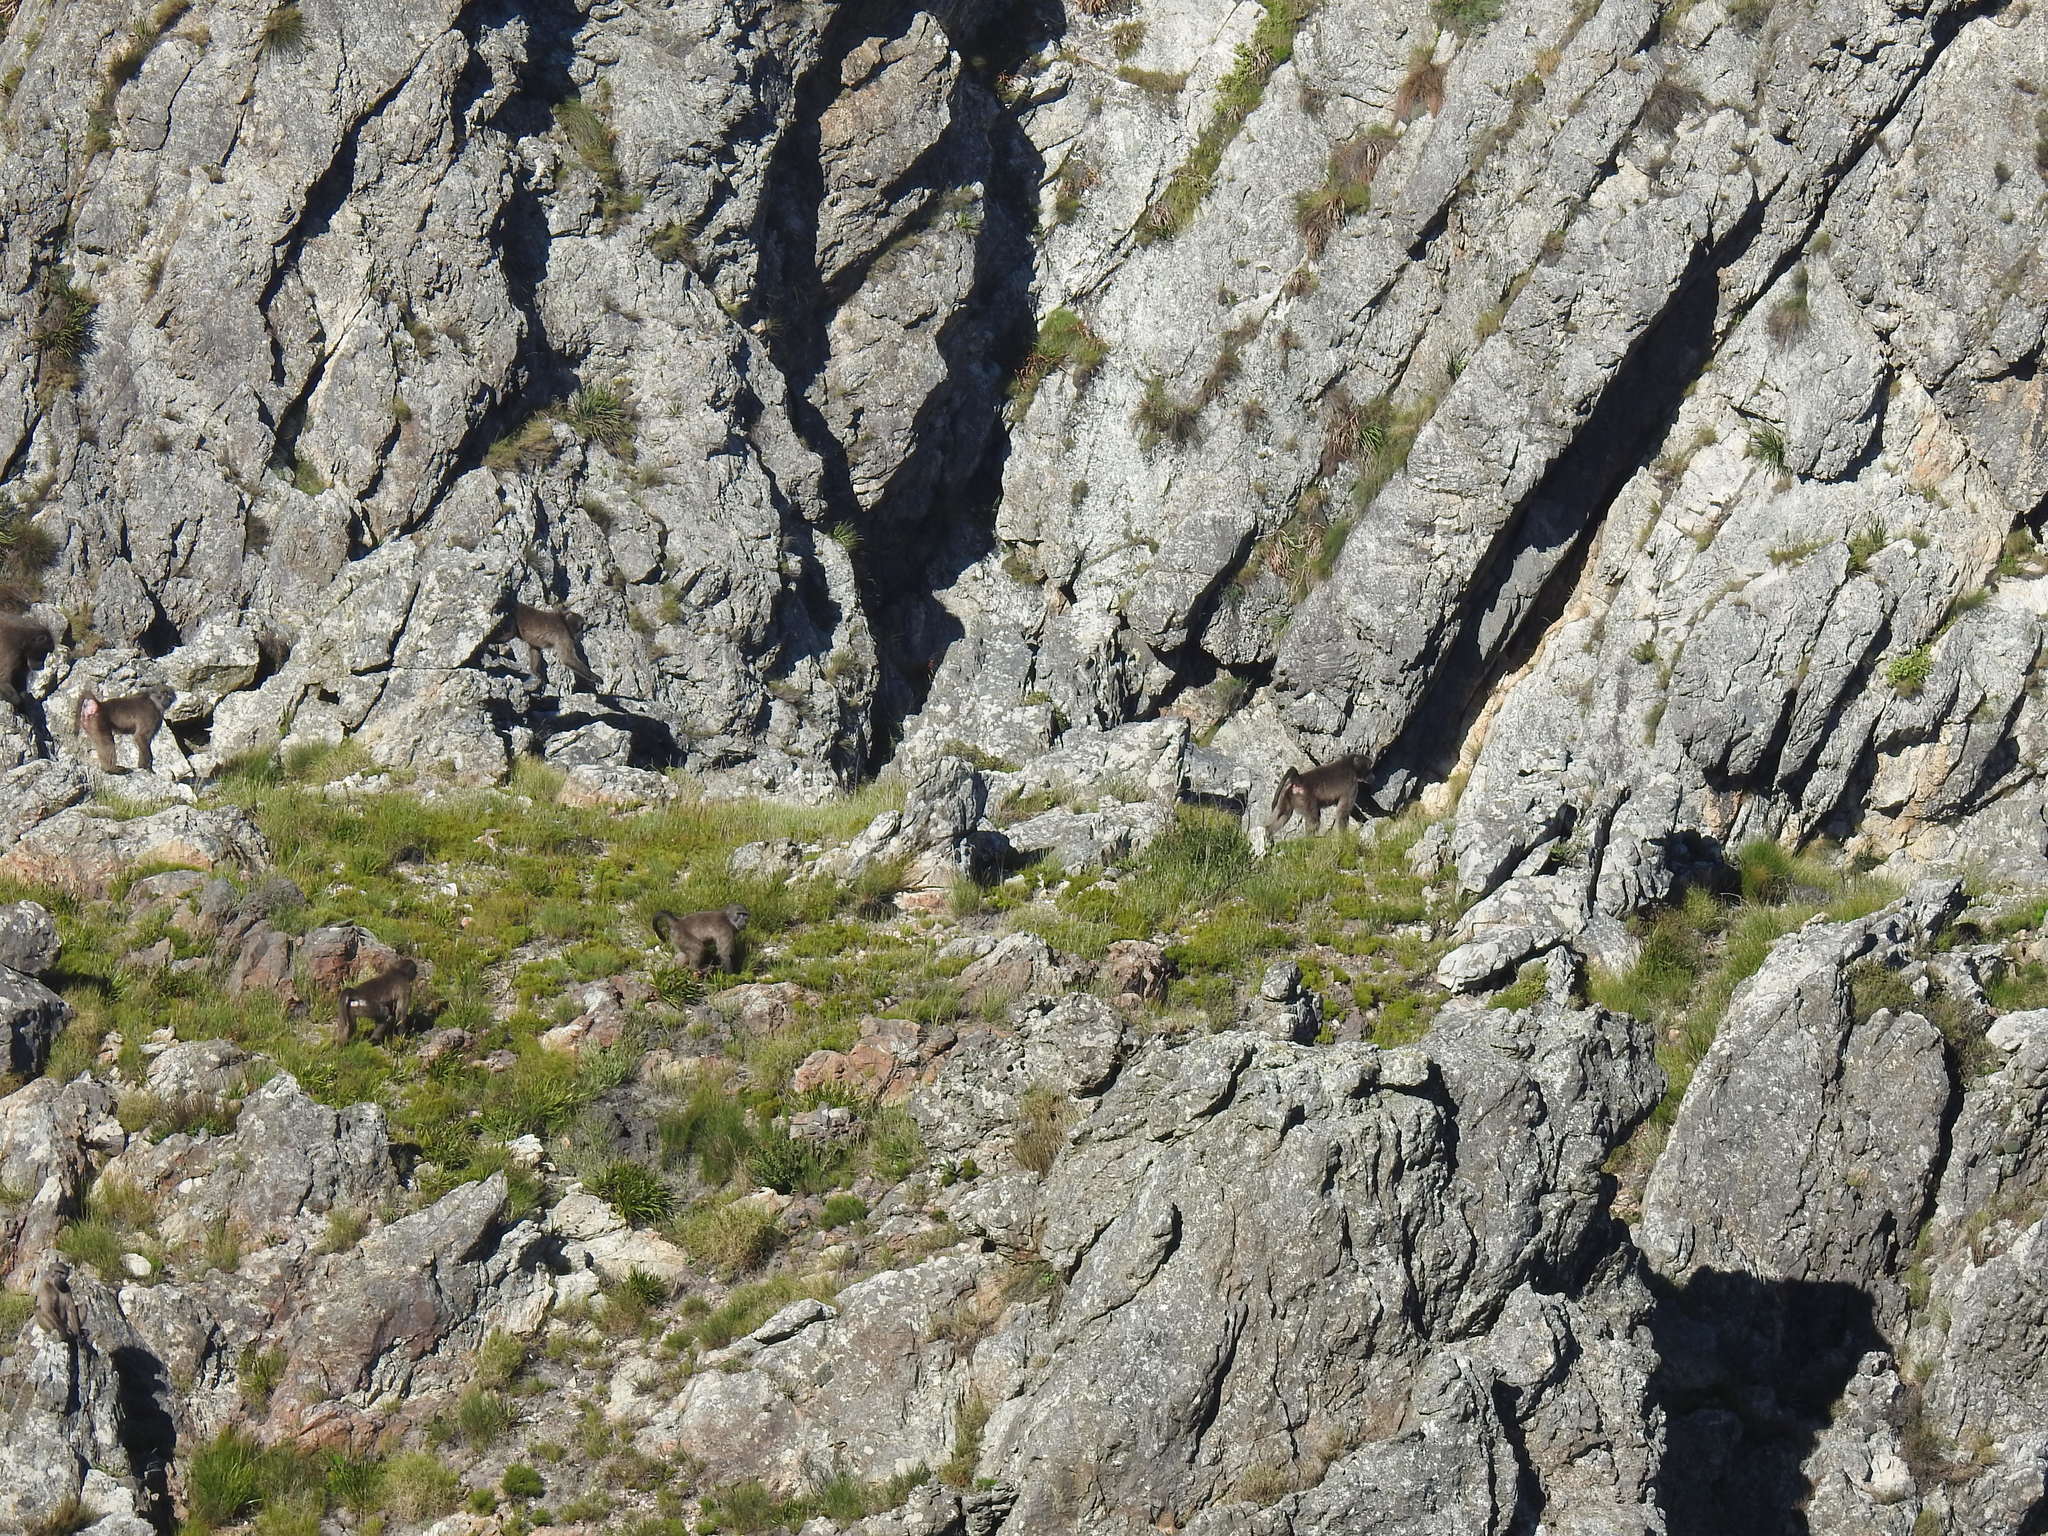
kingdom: Animalia
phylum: Chordata
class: Mammalia
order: Primates
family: Cercopithecidae
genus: Papio
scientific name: Papio ursinus
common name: Chacma baboon
